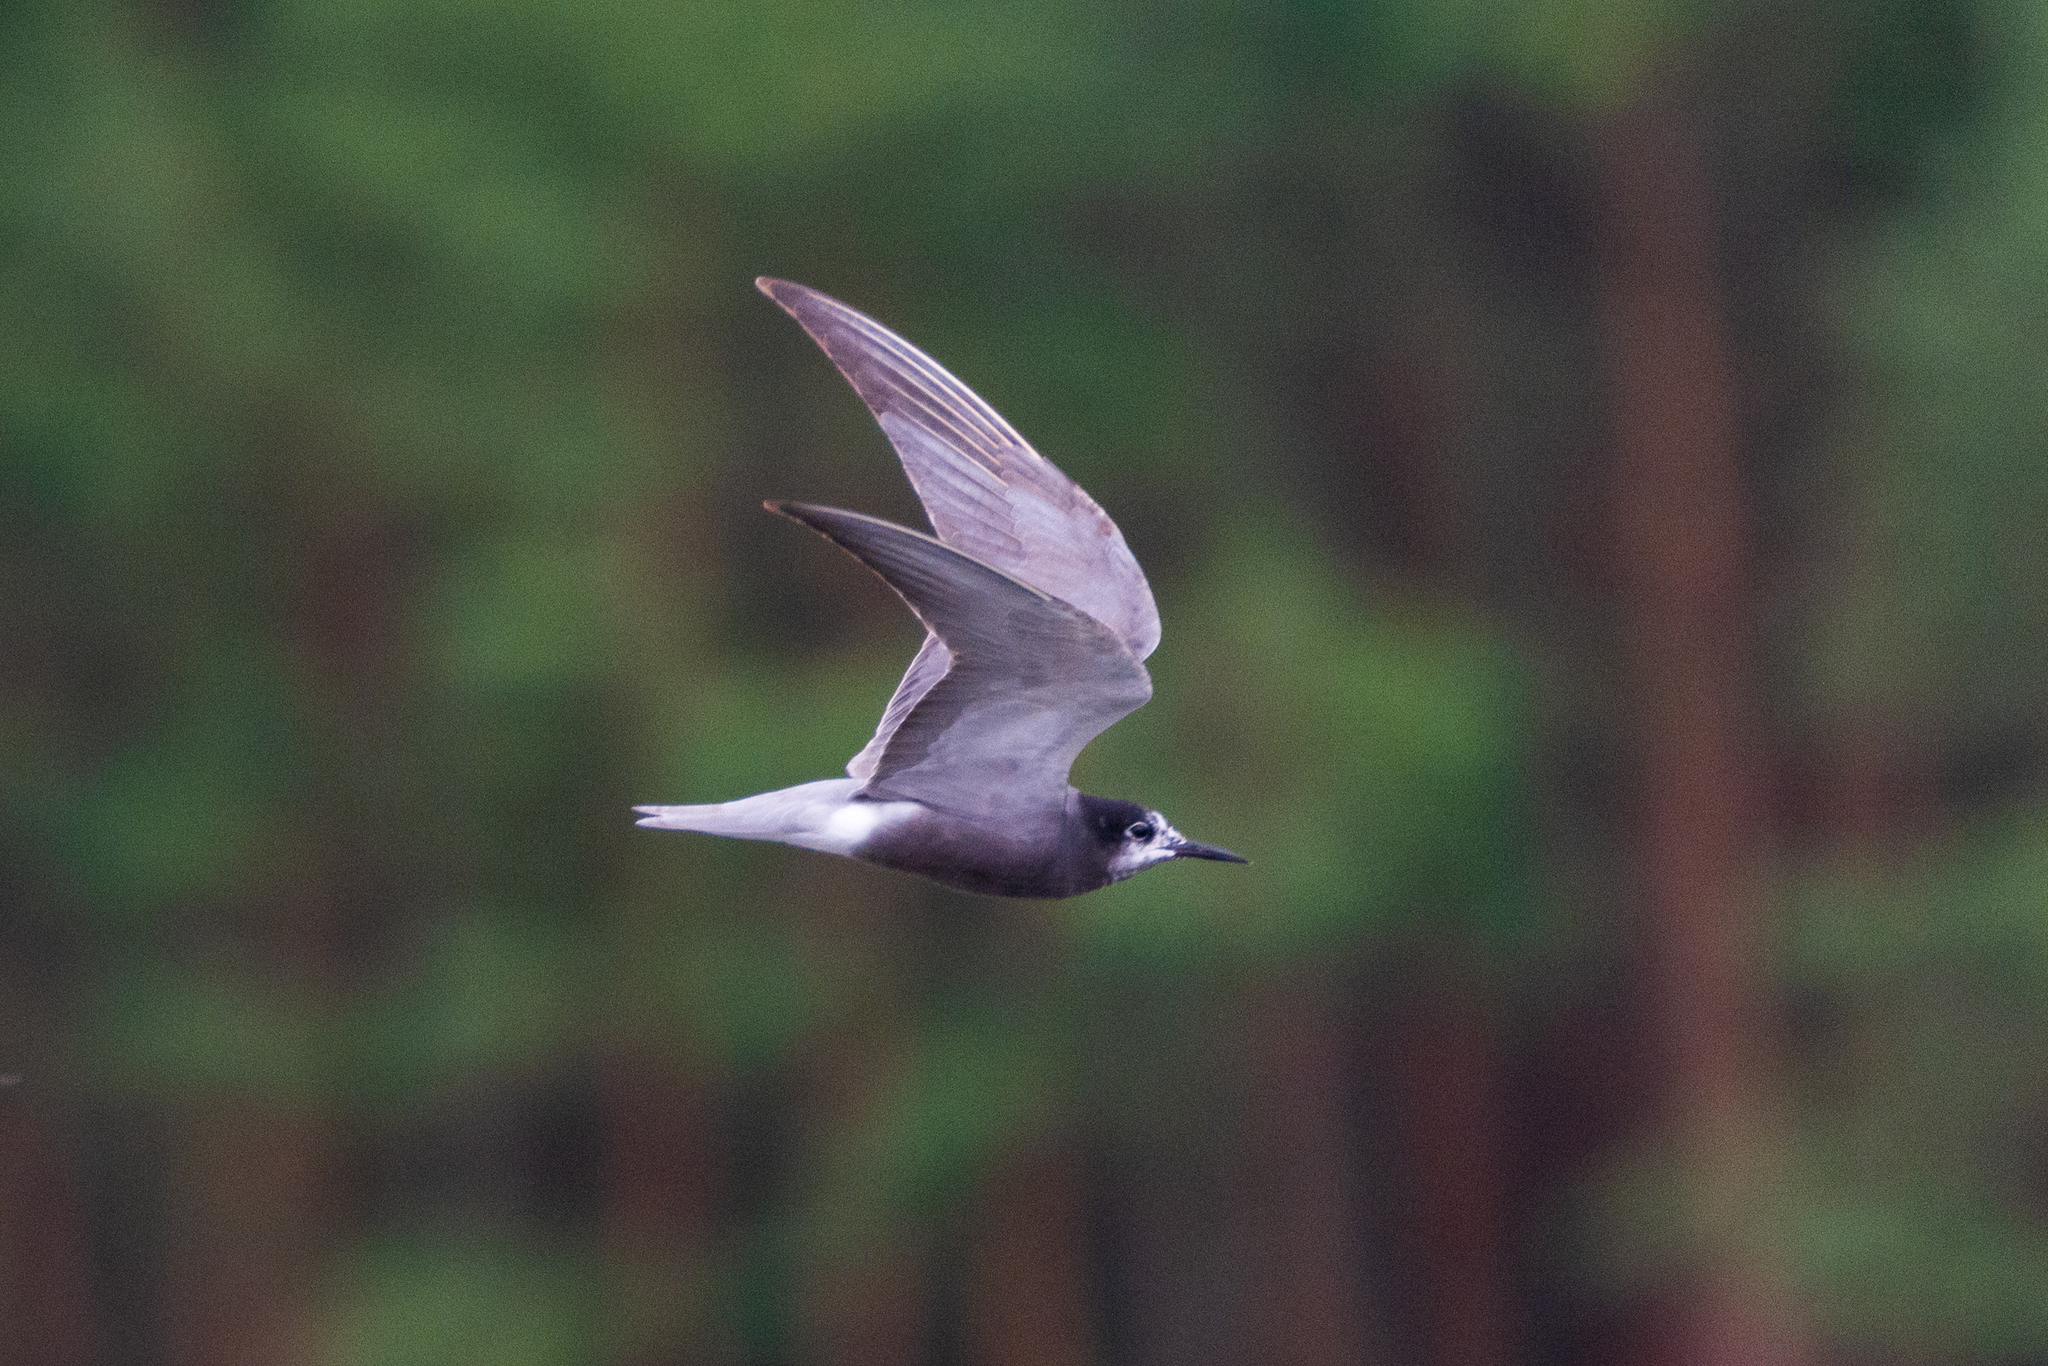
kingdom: Animalia
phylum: Chordata
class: Aves
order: Charadriiformes
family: Laridae
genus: Chlidonias
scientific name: Chlidonias niger
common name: Black tern
